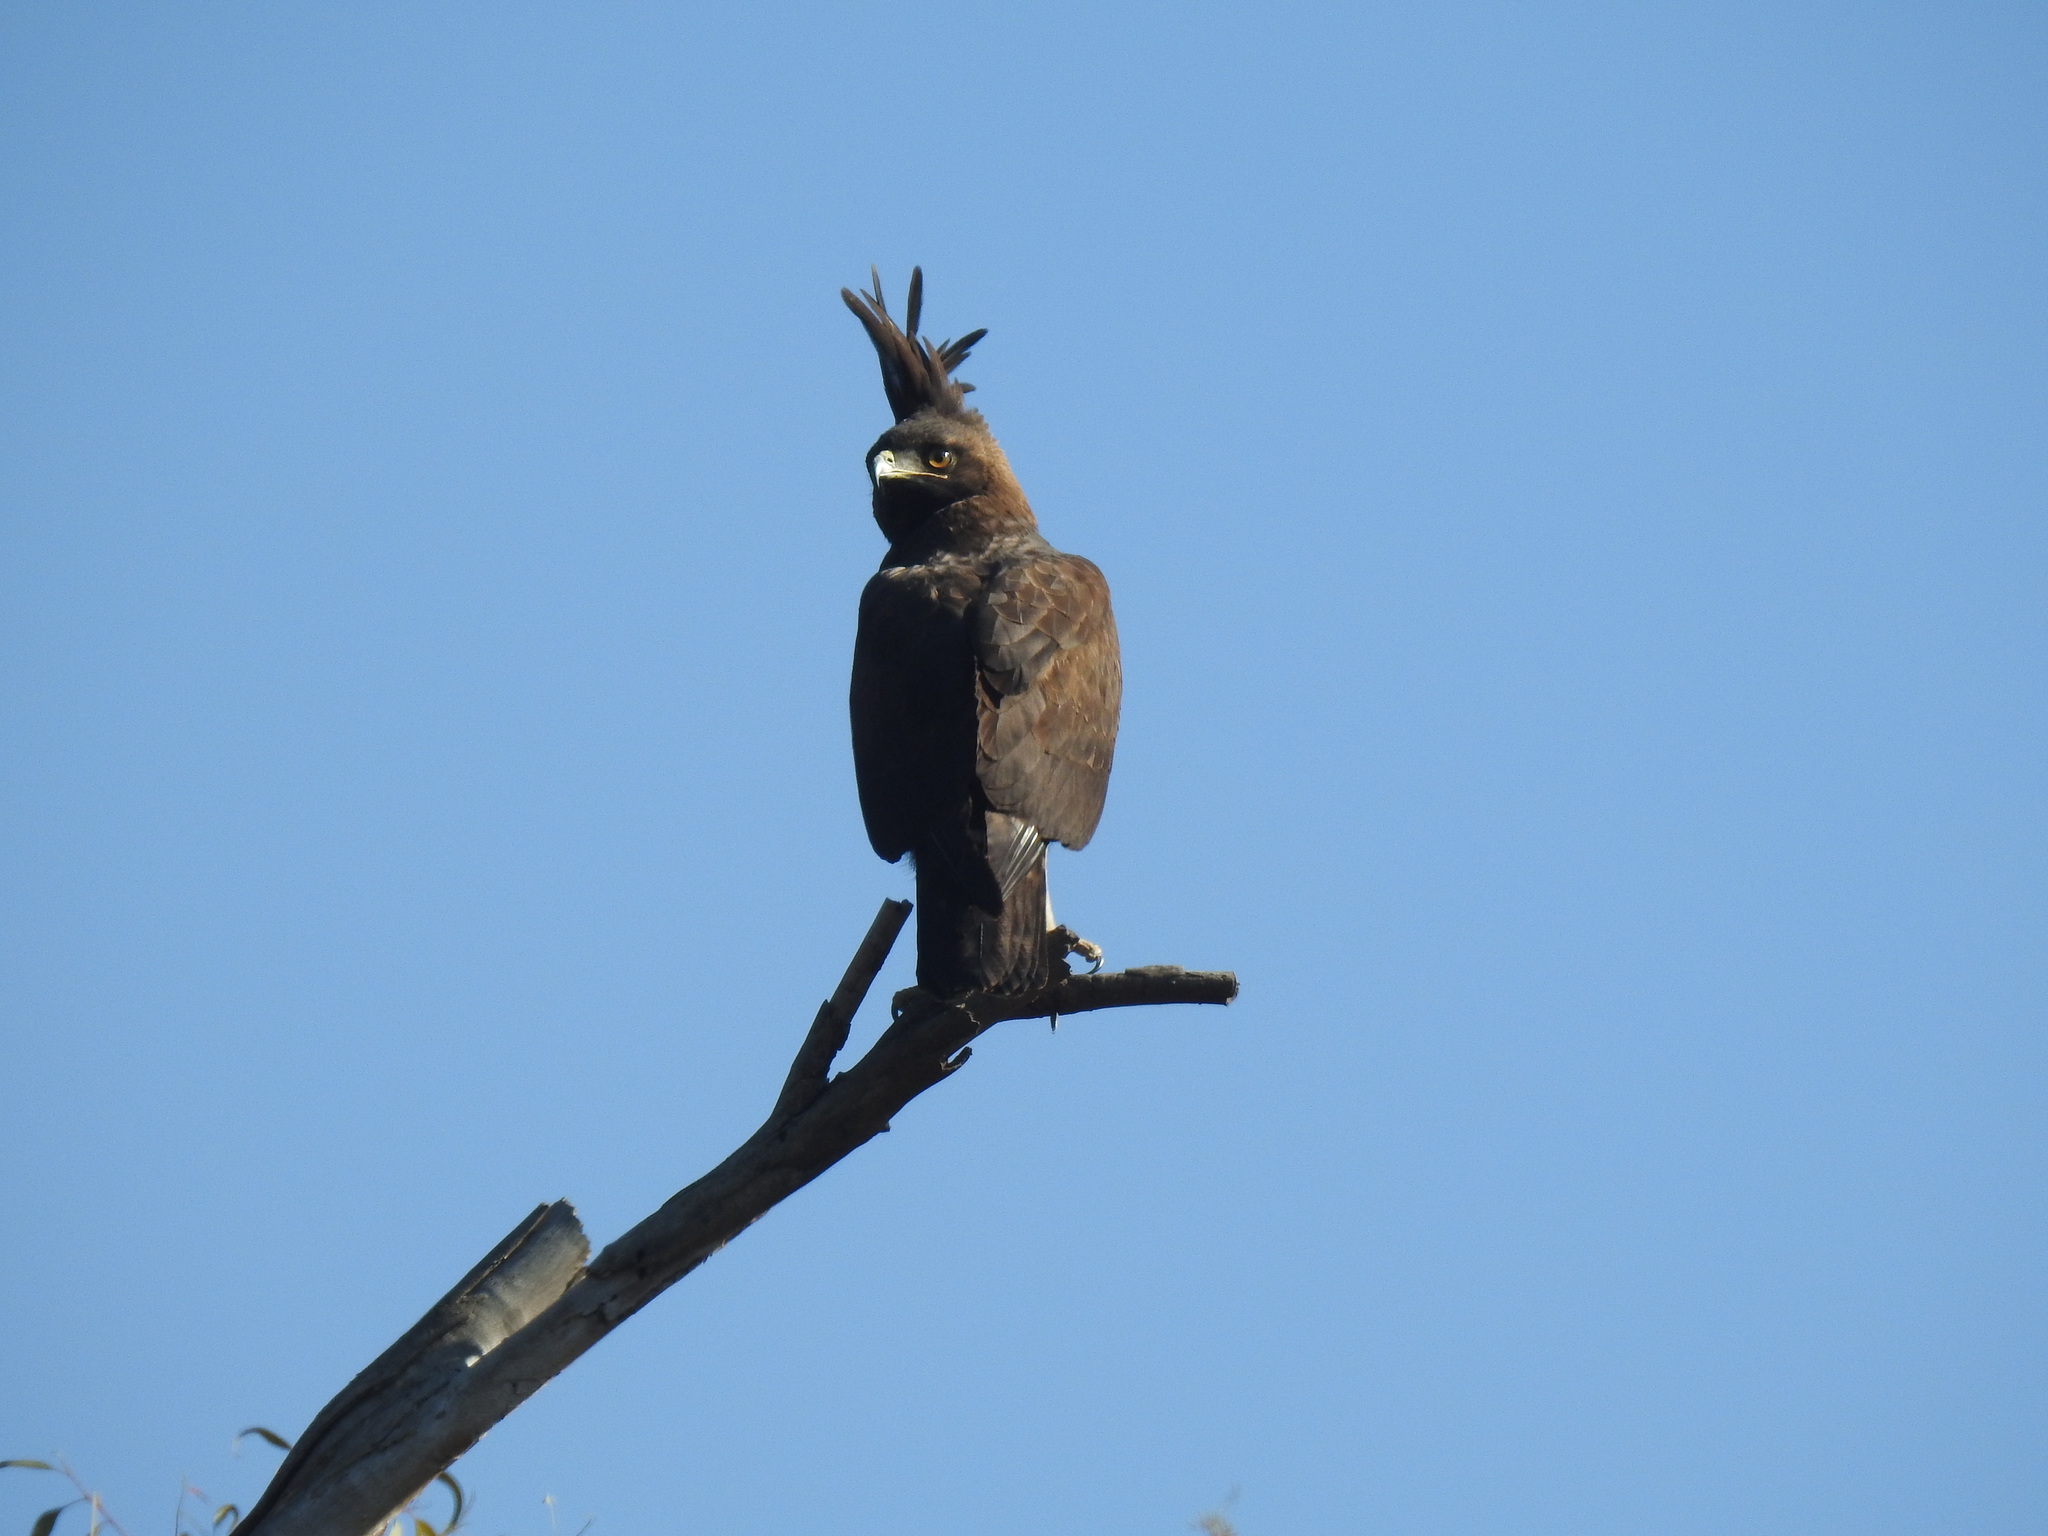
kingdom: Animalia
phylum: Chordata
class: Aves
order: Accipitriformes
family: Accipitridae
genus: Lophaetus
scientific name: Lophaetus occipitalis
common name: Long-crested eagle
